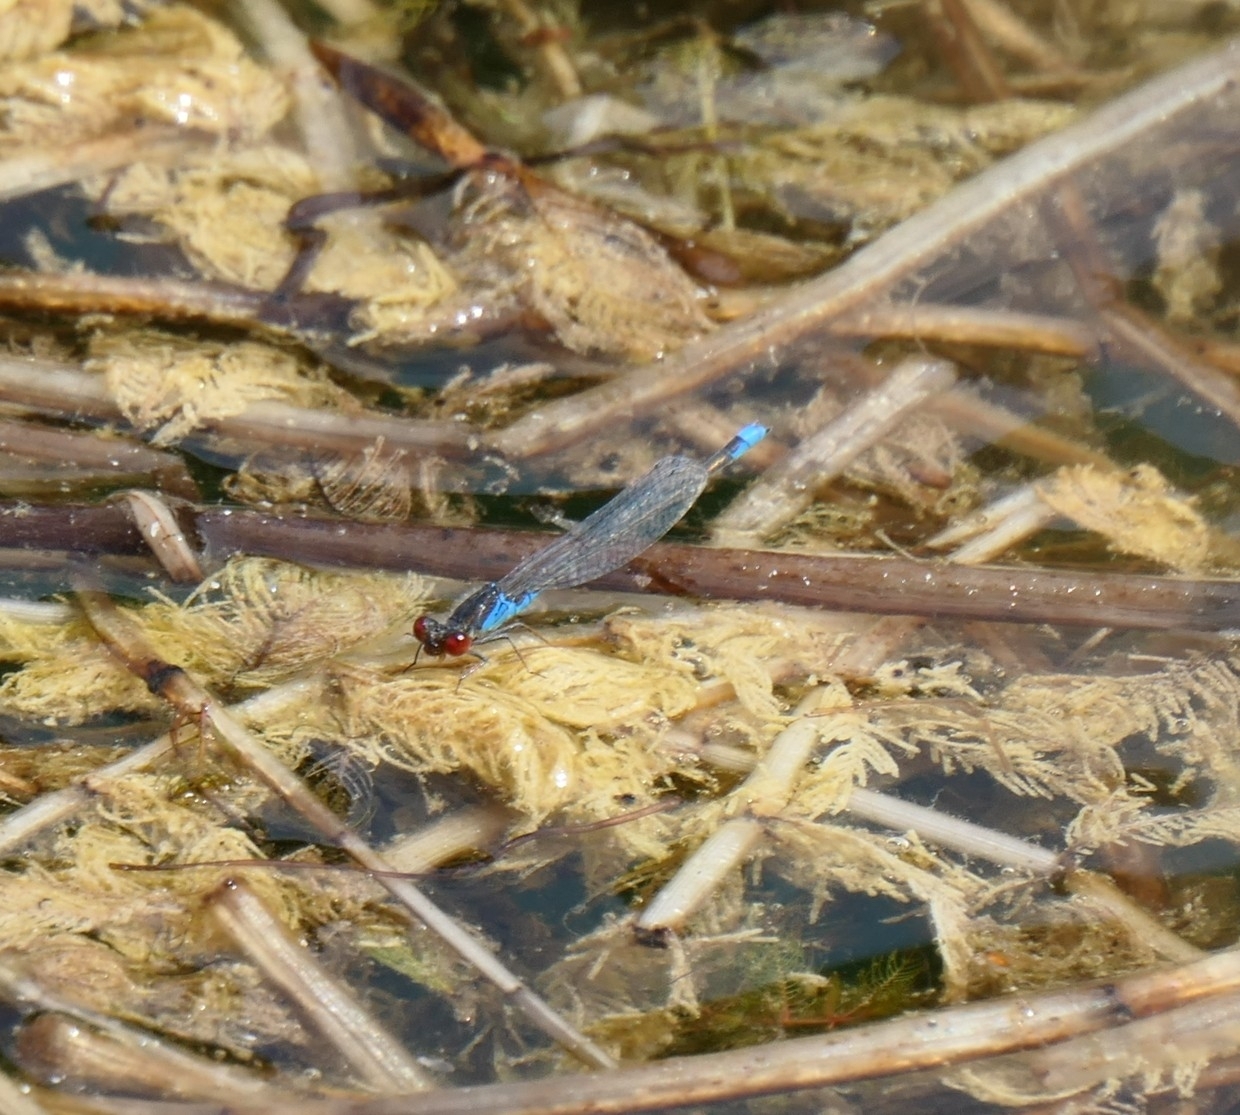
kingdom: Animalia
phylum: Arthropoda
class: Insecta
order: Odonata
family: Coenagrionidae
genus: Erythromma
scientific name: Erythromma viridulum
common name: Small red-eyed damselfly
